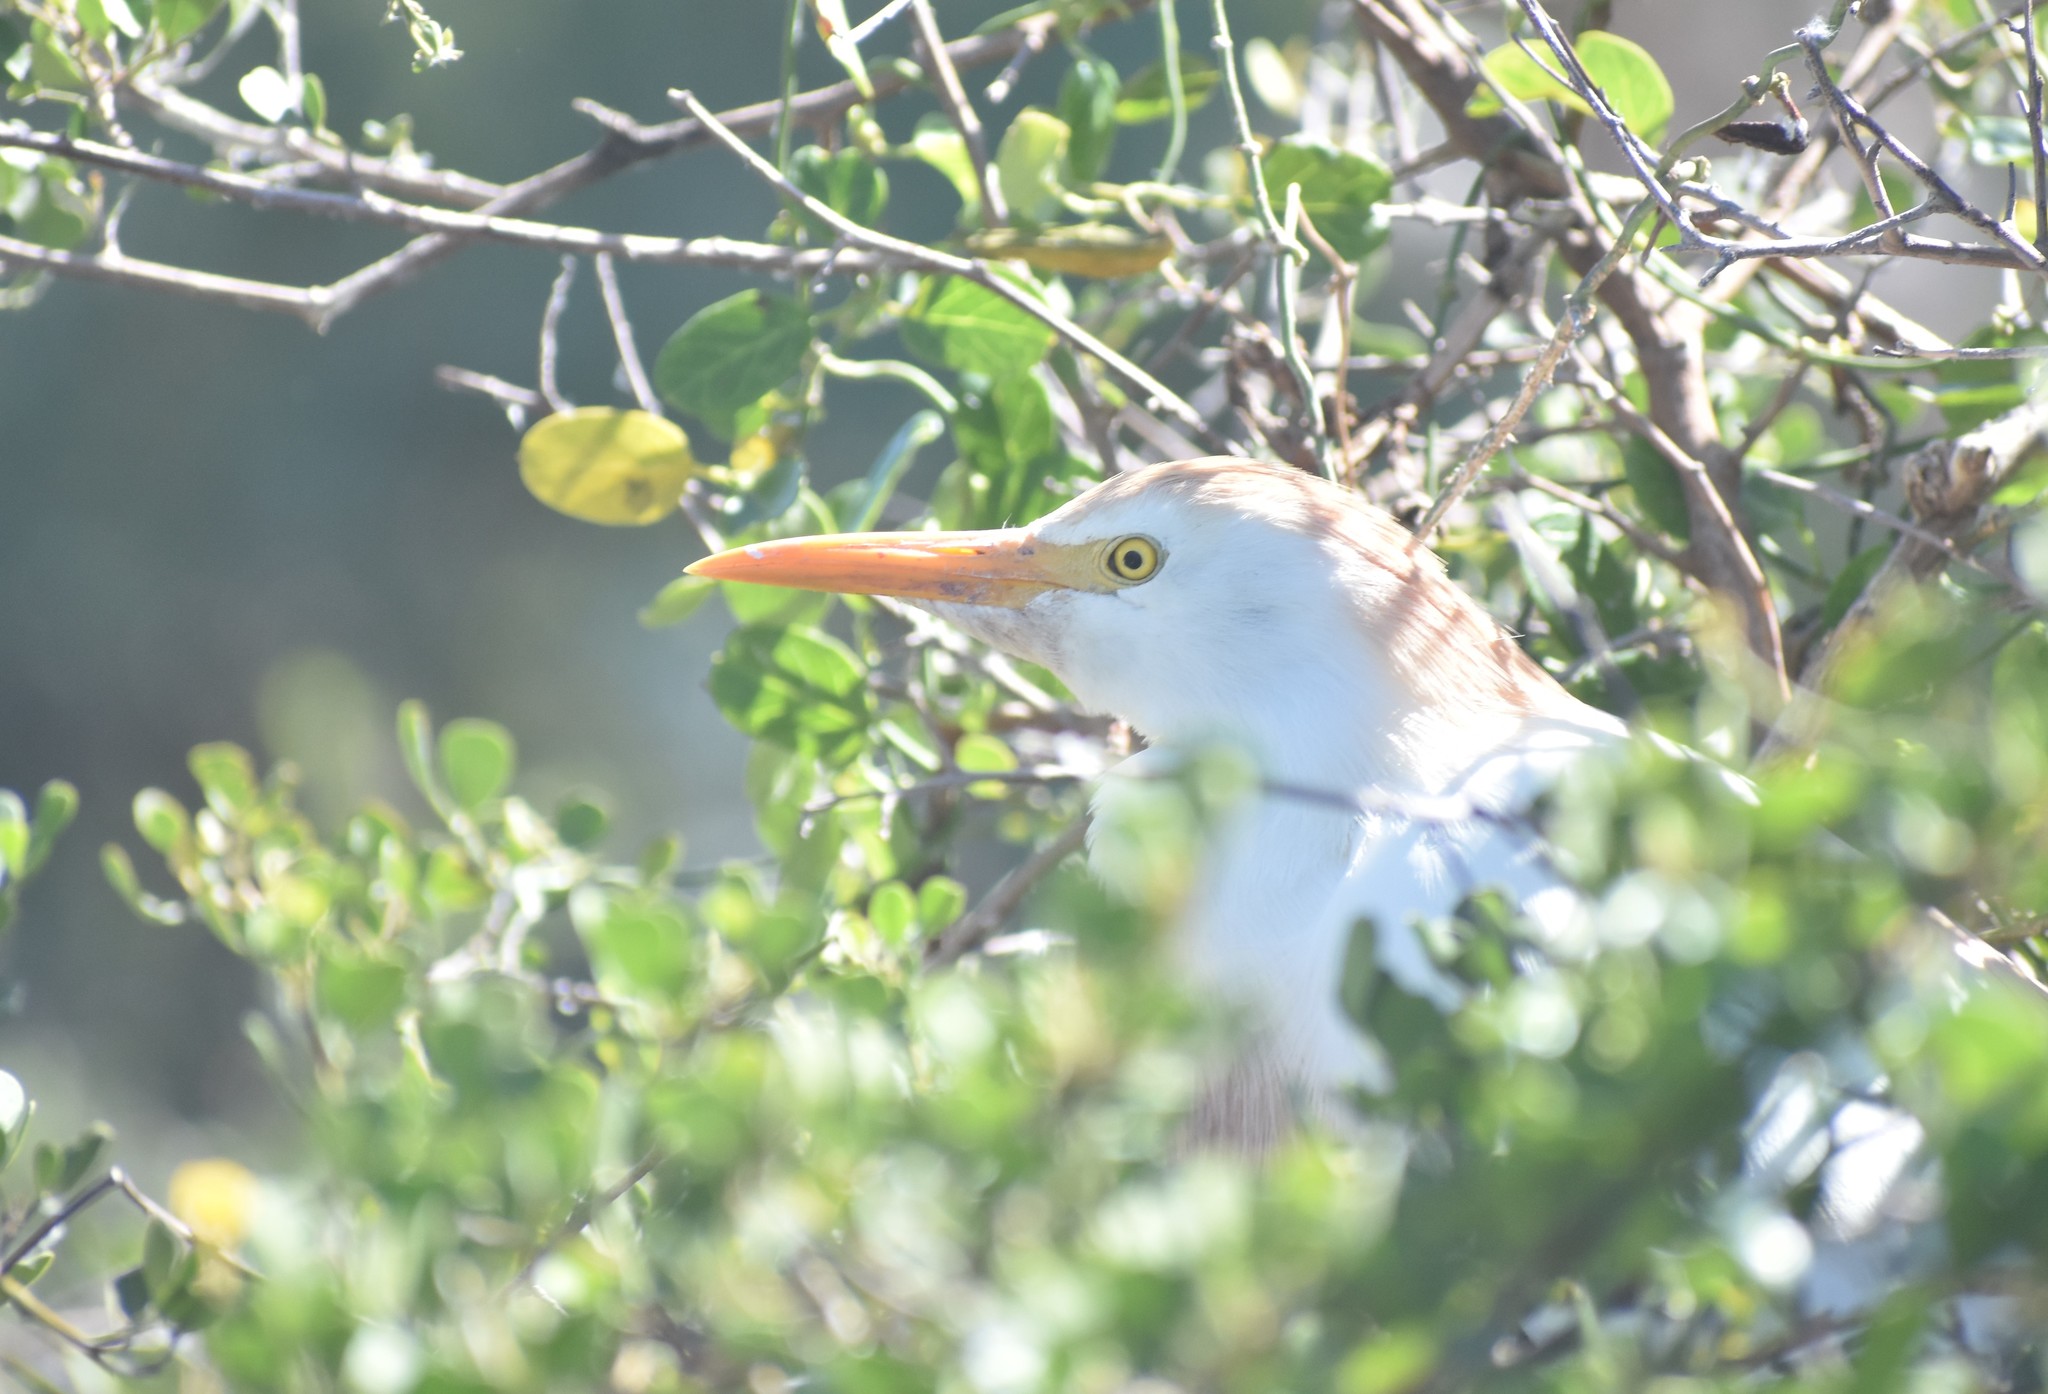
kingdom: Animalia
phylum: Chordata
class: Aves
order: Pelecaniformes
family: Ardeidae
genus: Bubulcus
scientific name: Bubulcus ibis
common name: Cattle egret
